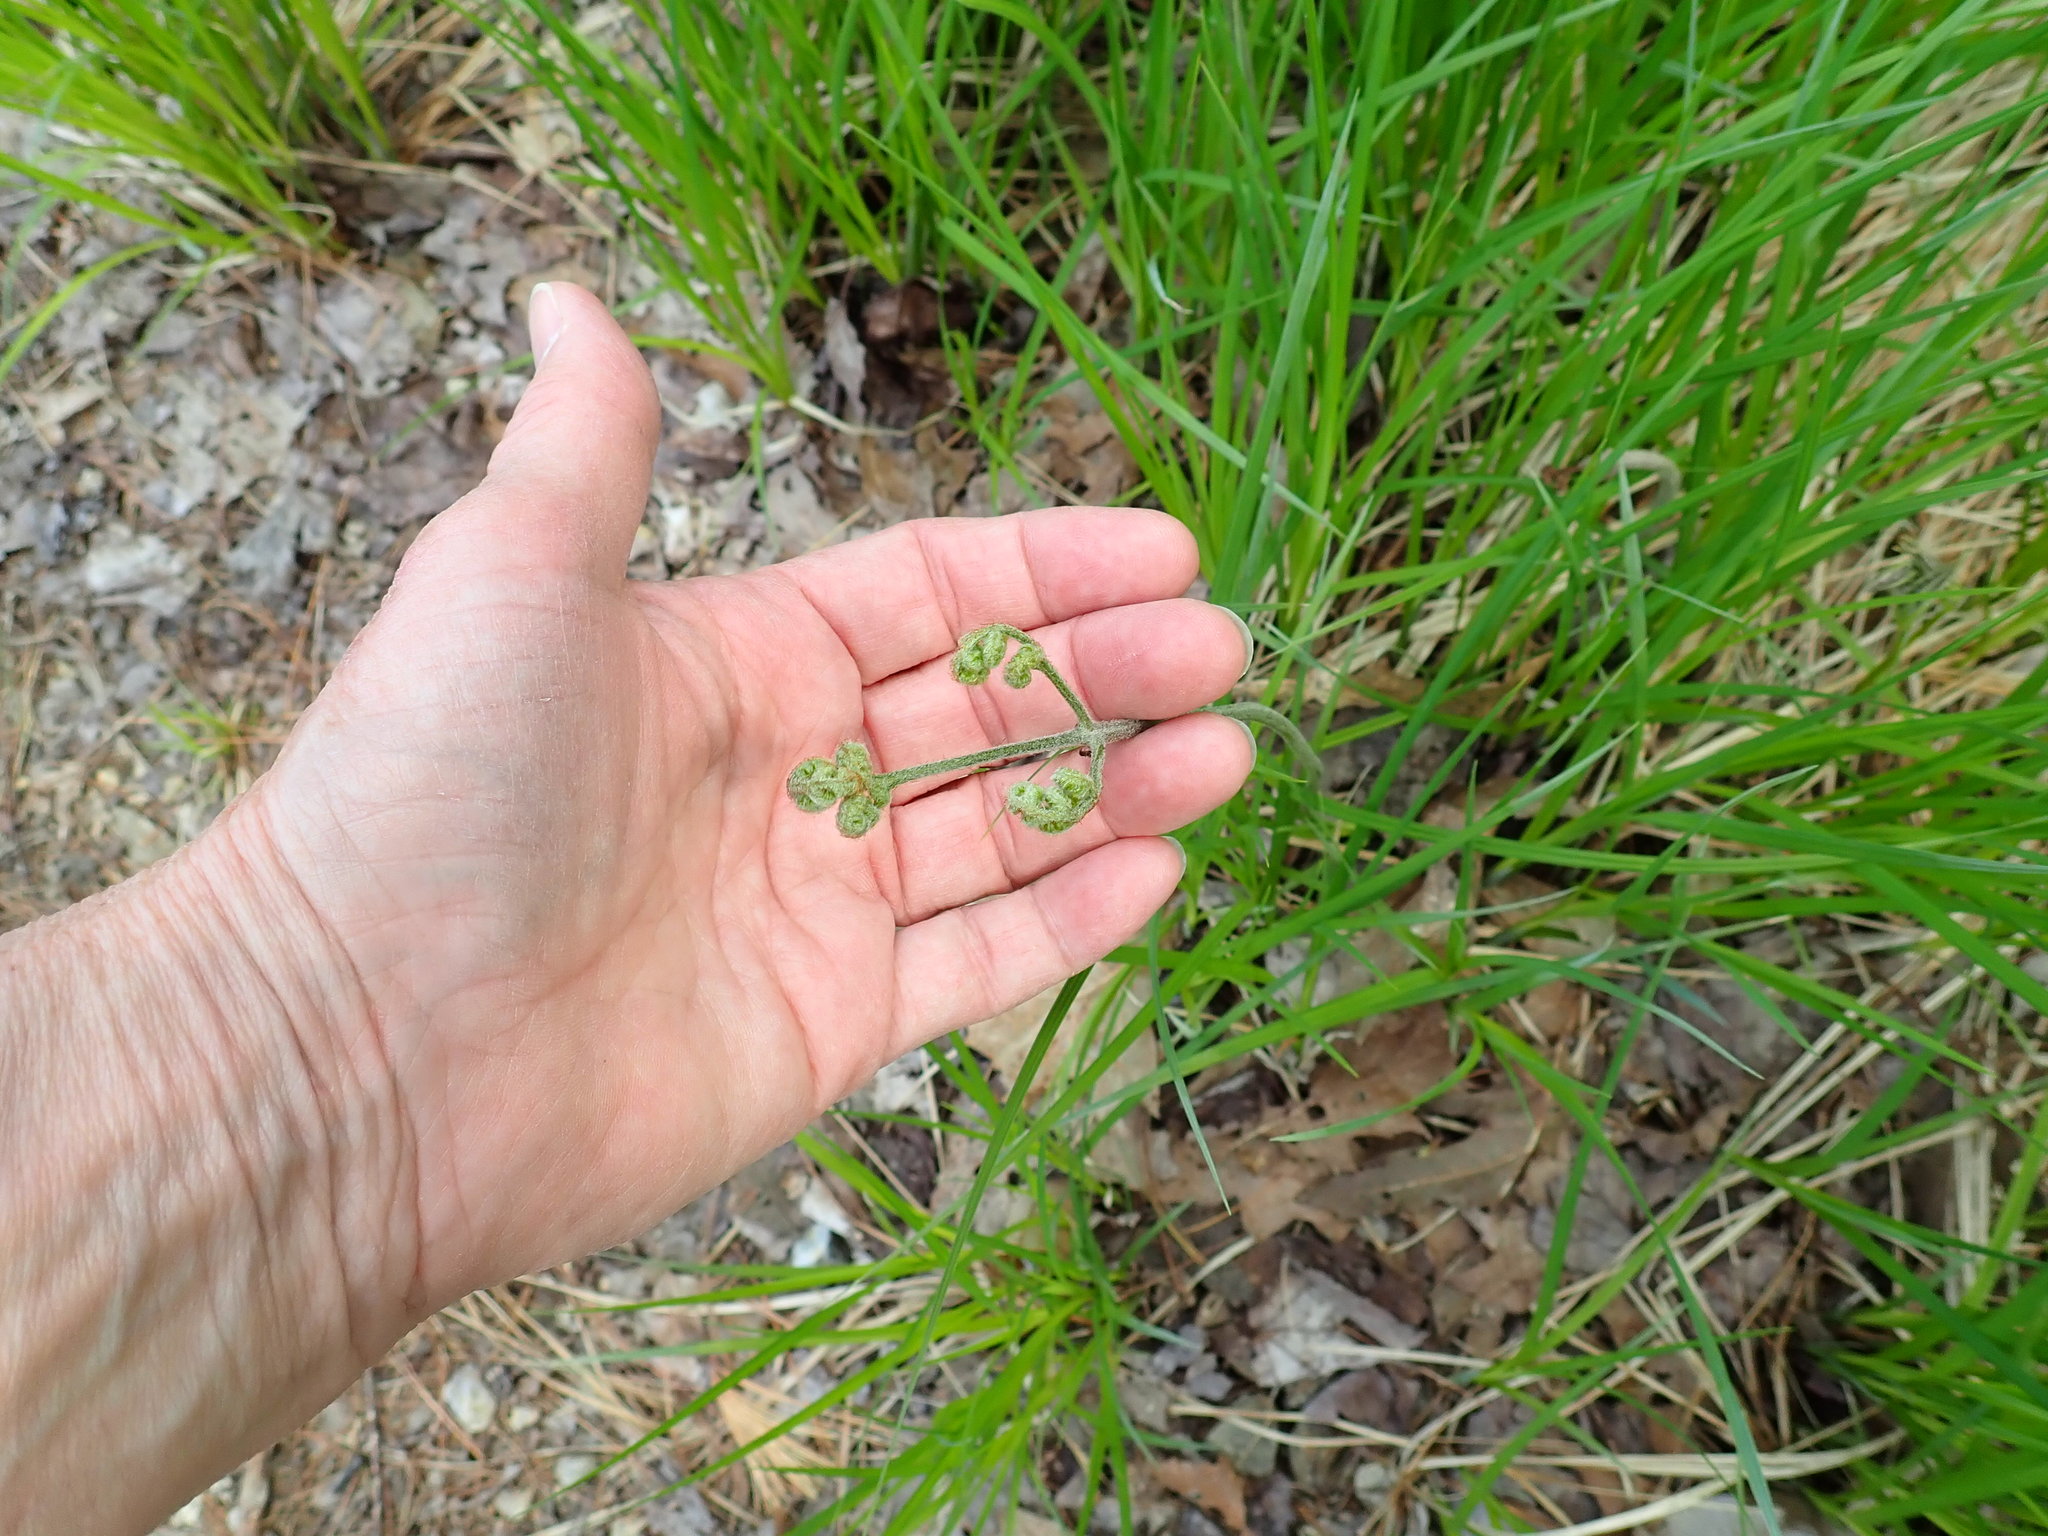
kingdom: Plantae
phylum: Tracheophyta
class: Polypodiopsida
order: Polypodiales
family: Dennstaedtiaceae
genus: Pteridium
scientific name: Pteridium aquilinum
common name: Bracken
